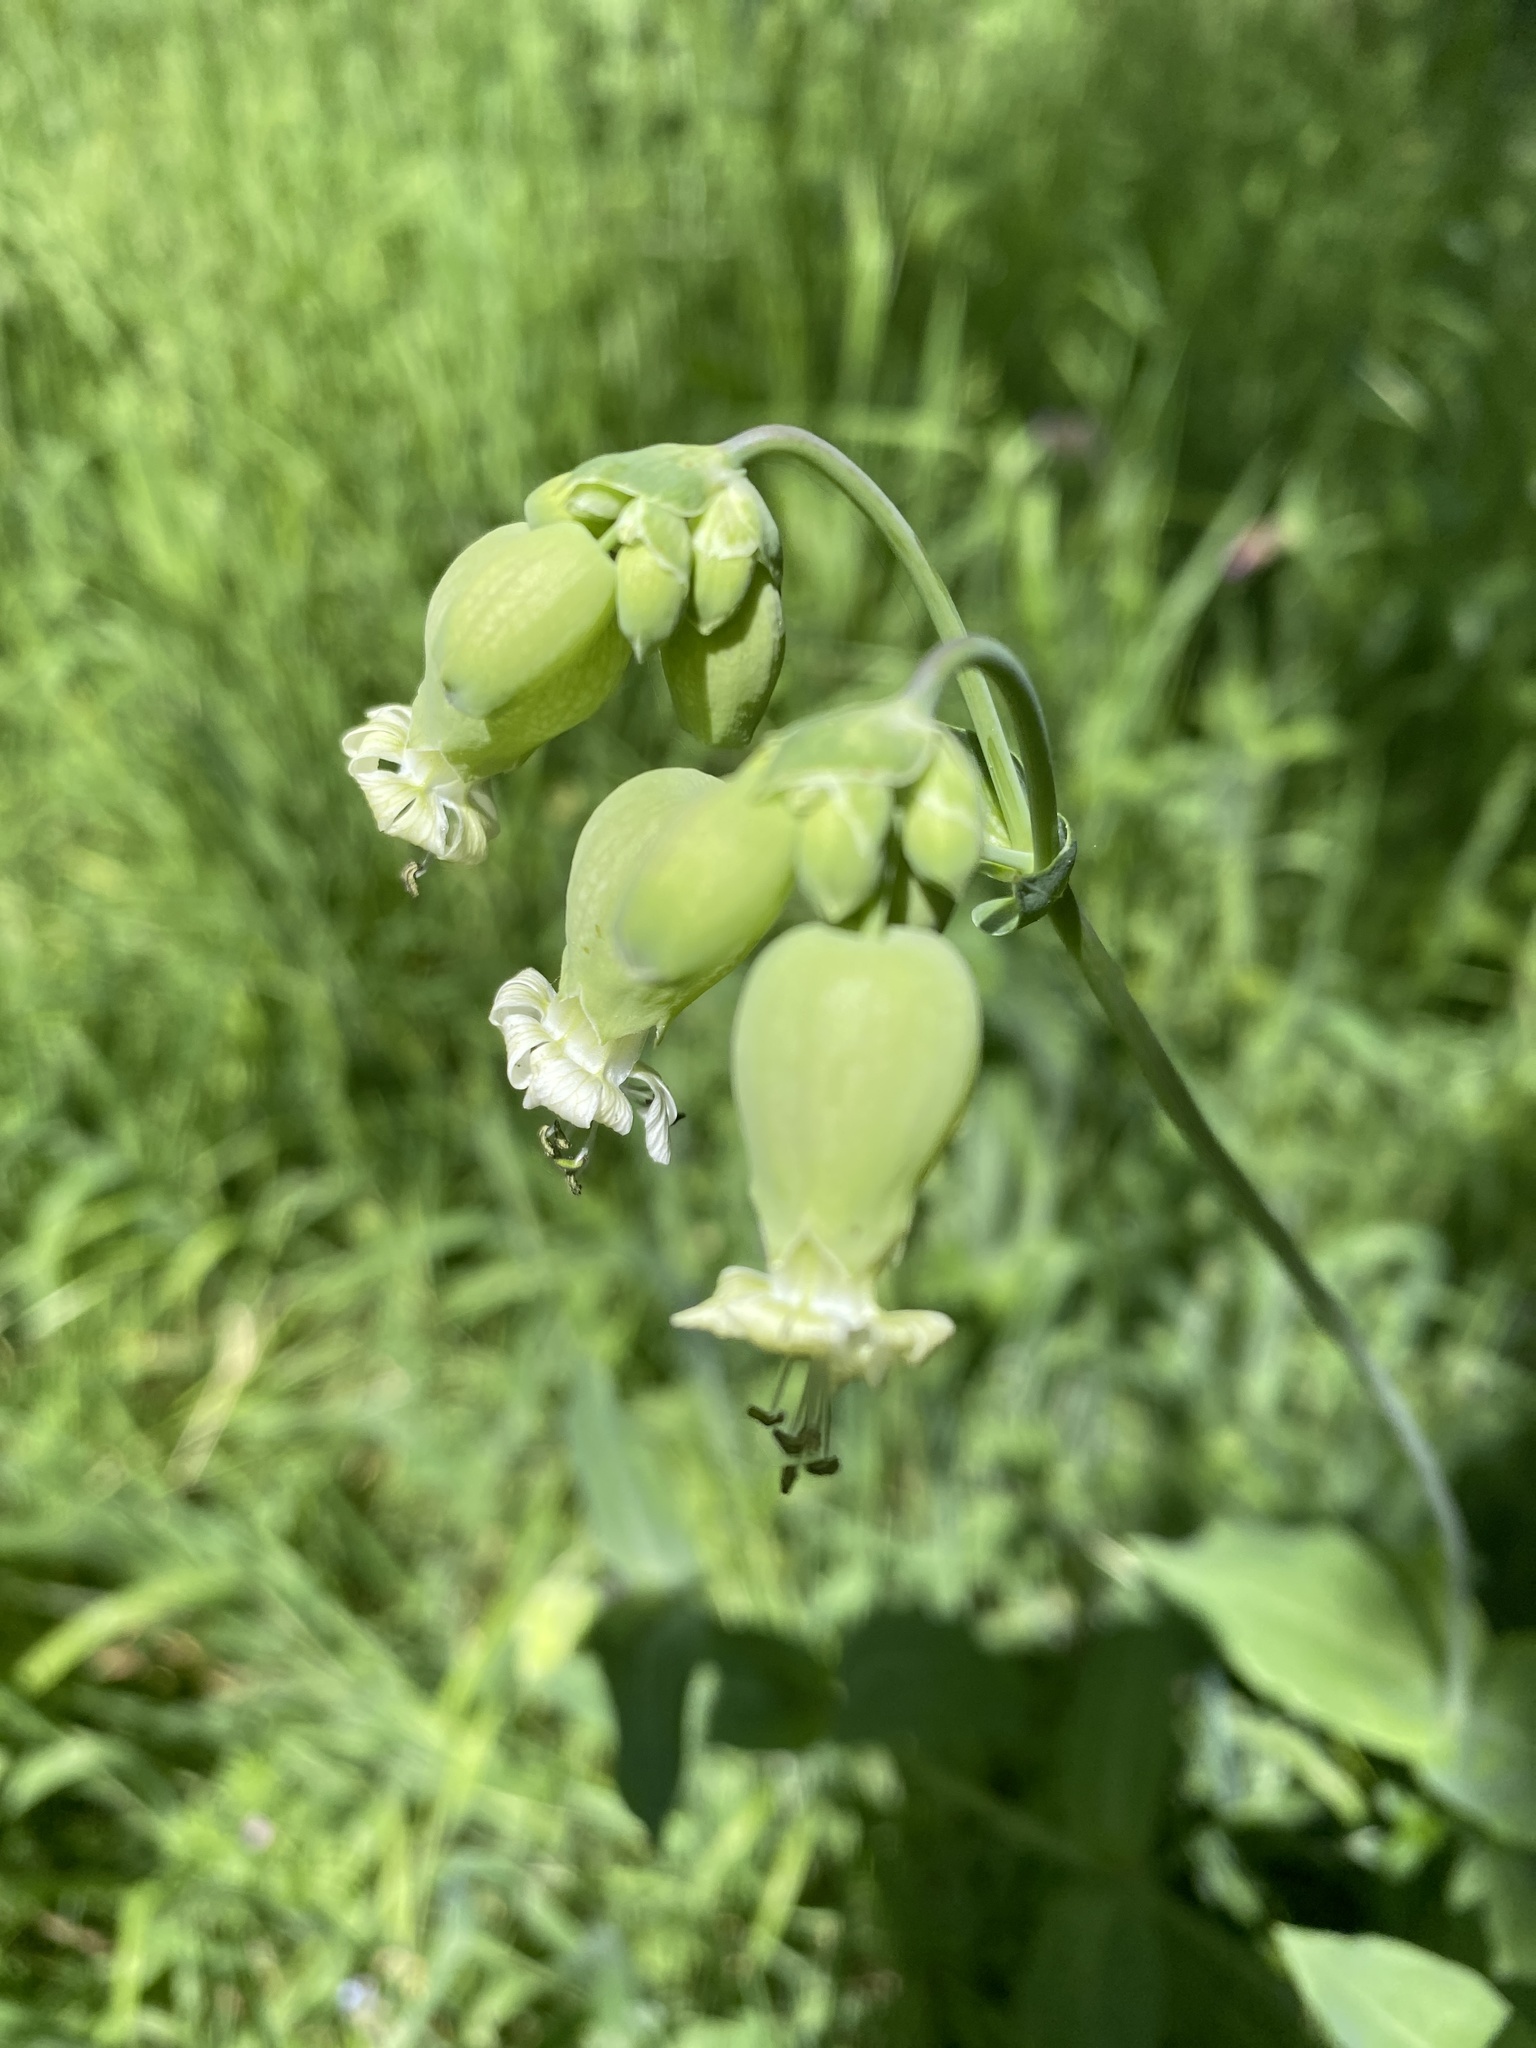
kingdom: Plantae
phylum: Tracheophyta
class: Magnoliopsida
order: Caryophyllales
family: Caryophyllaceae
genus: Silene
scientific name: Silene vulgaris
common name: Bladder campion
